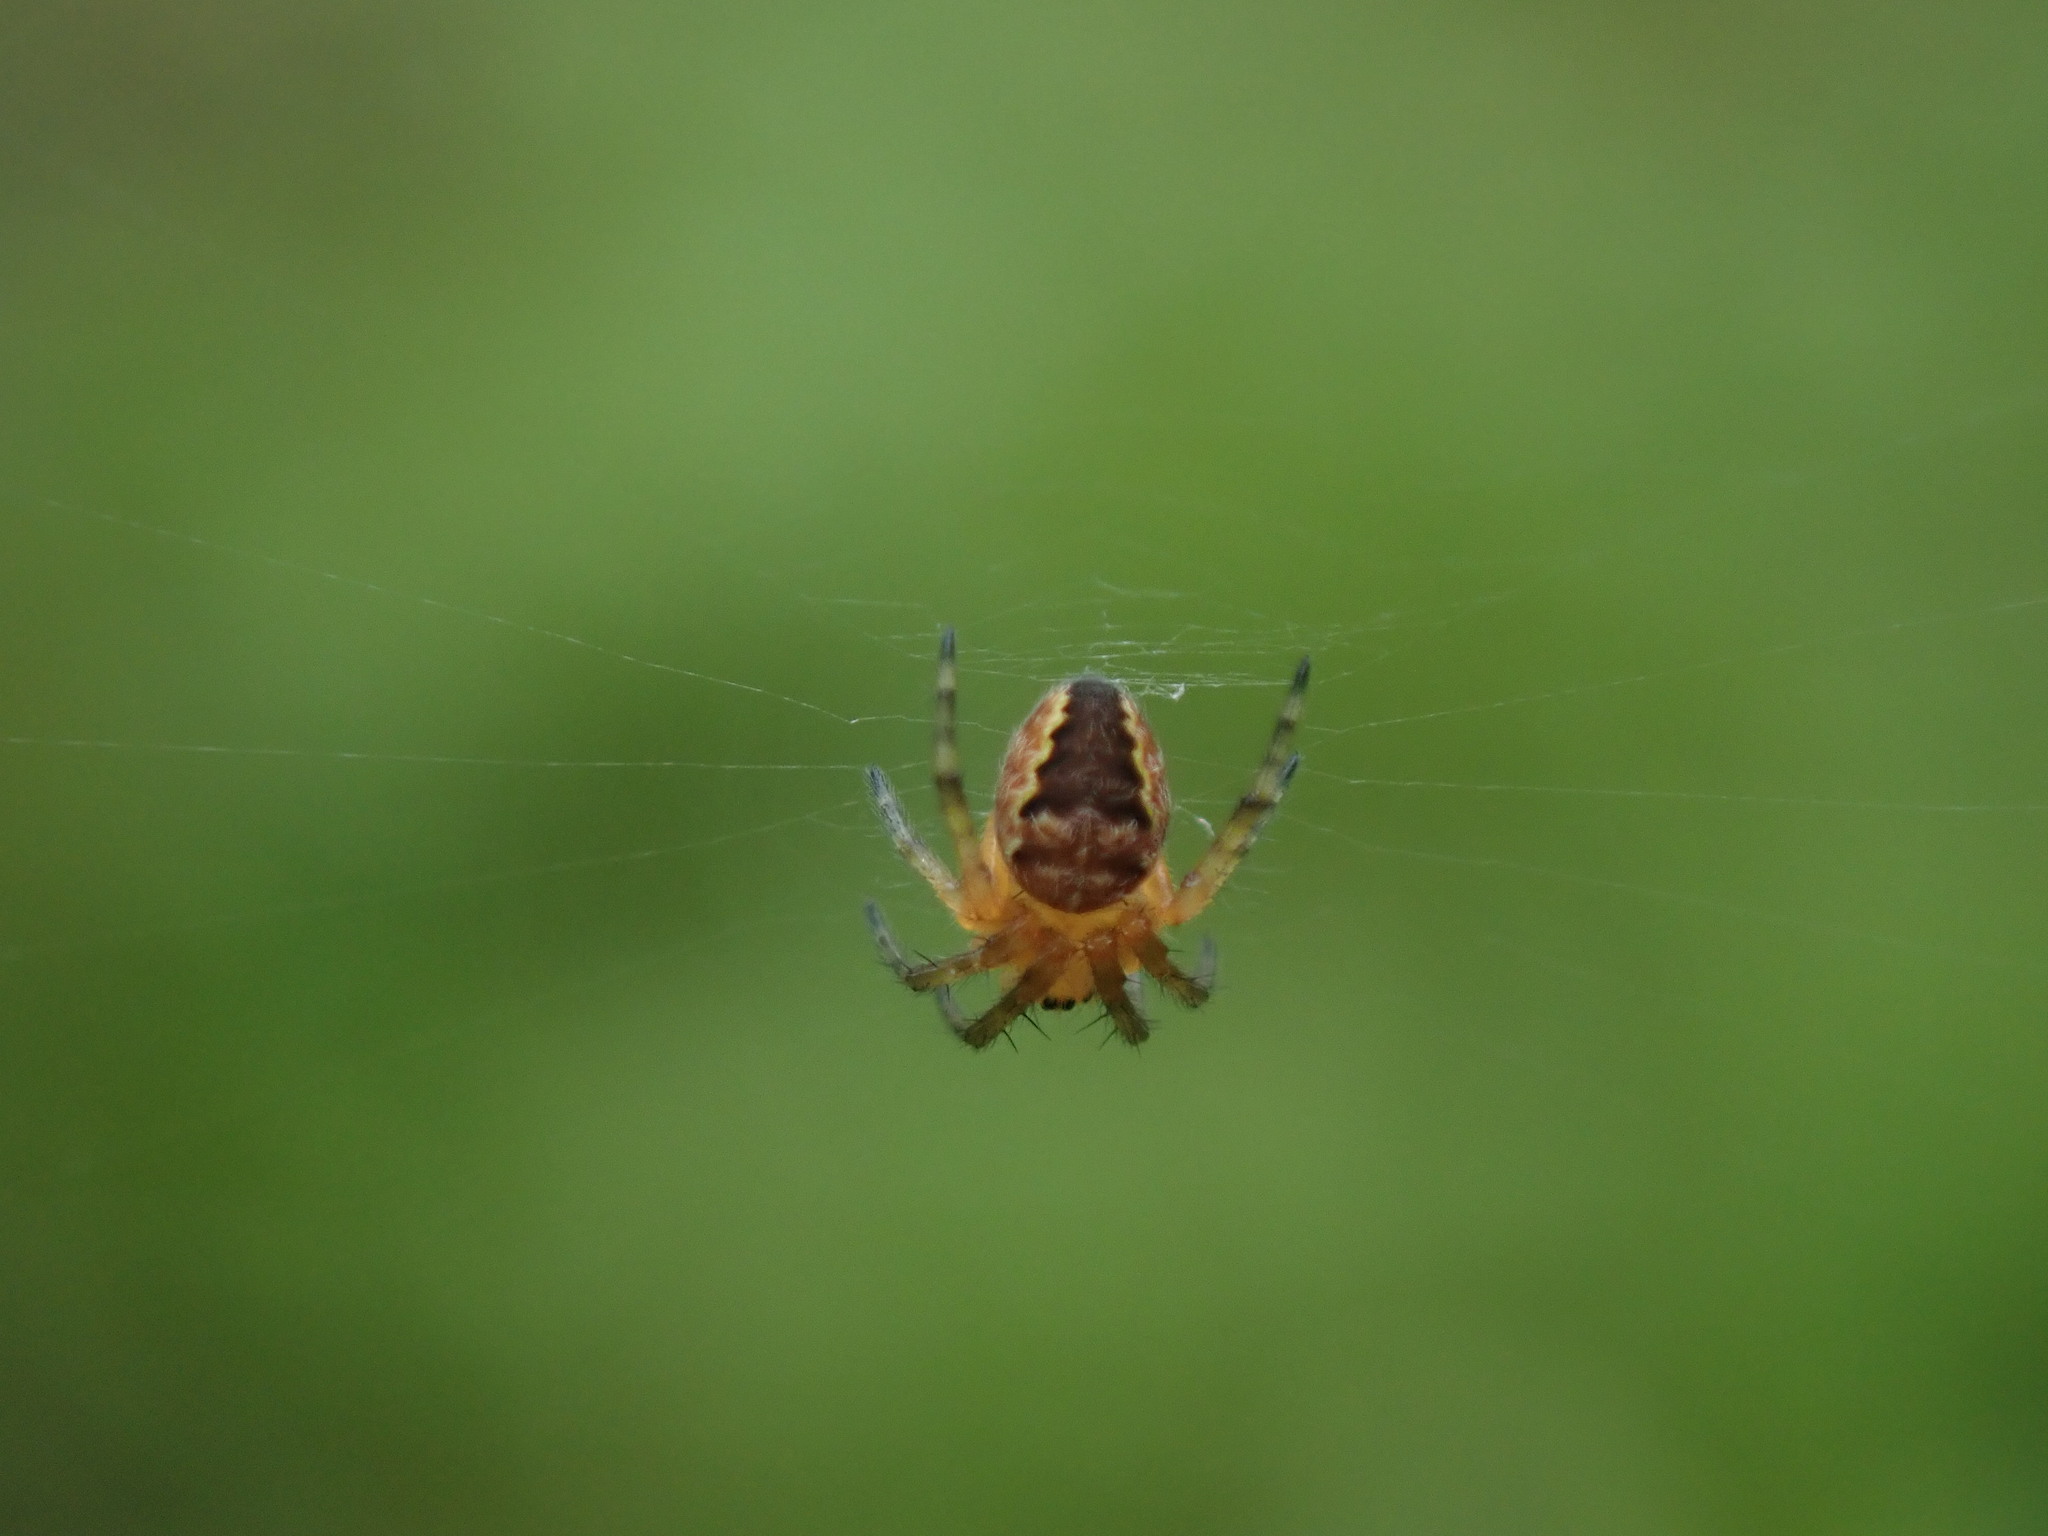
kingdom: Animalia
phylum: Arthropoda
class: Arachnida
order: Araneae
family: Araneidae
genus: Araneus
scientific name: Araneus diadematus
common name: Cross orbweaver
